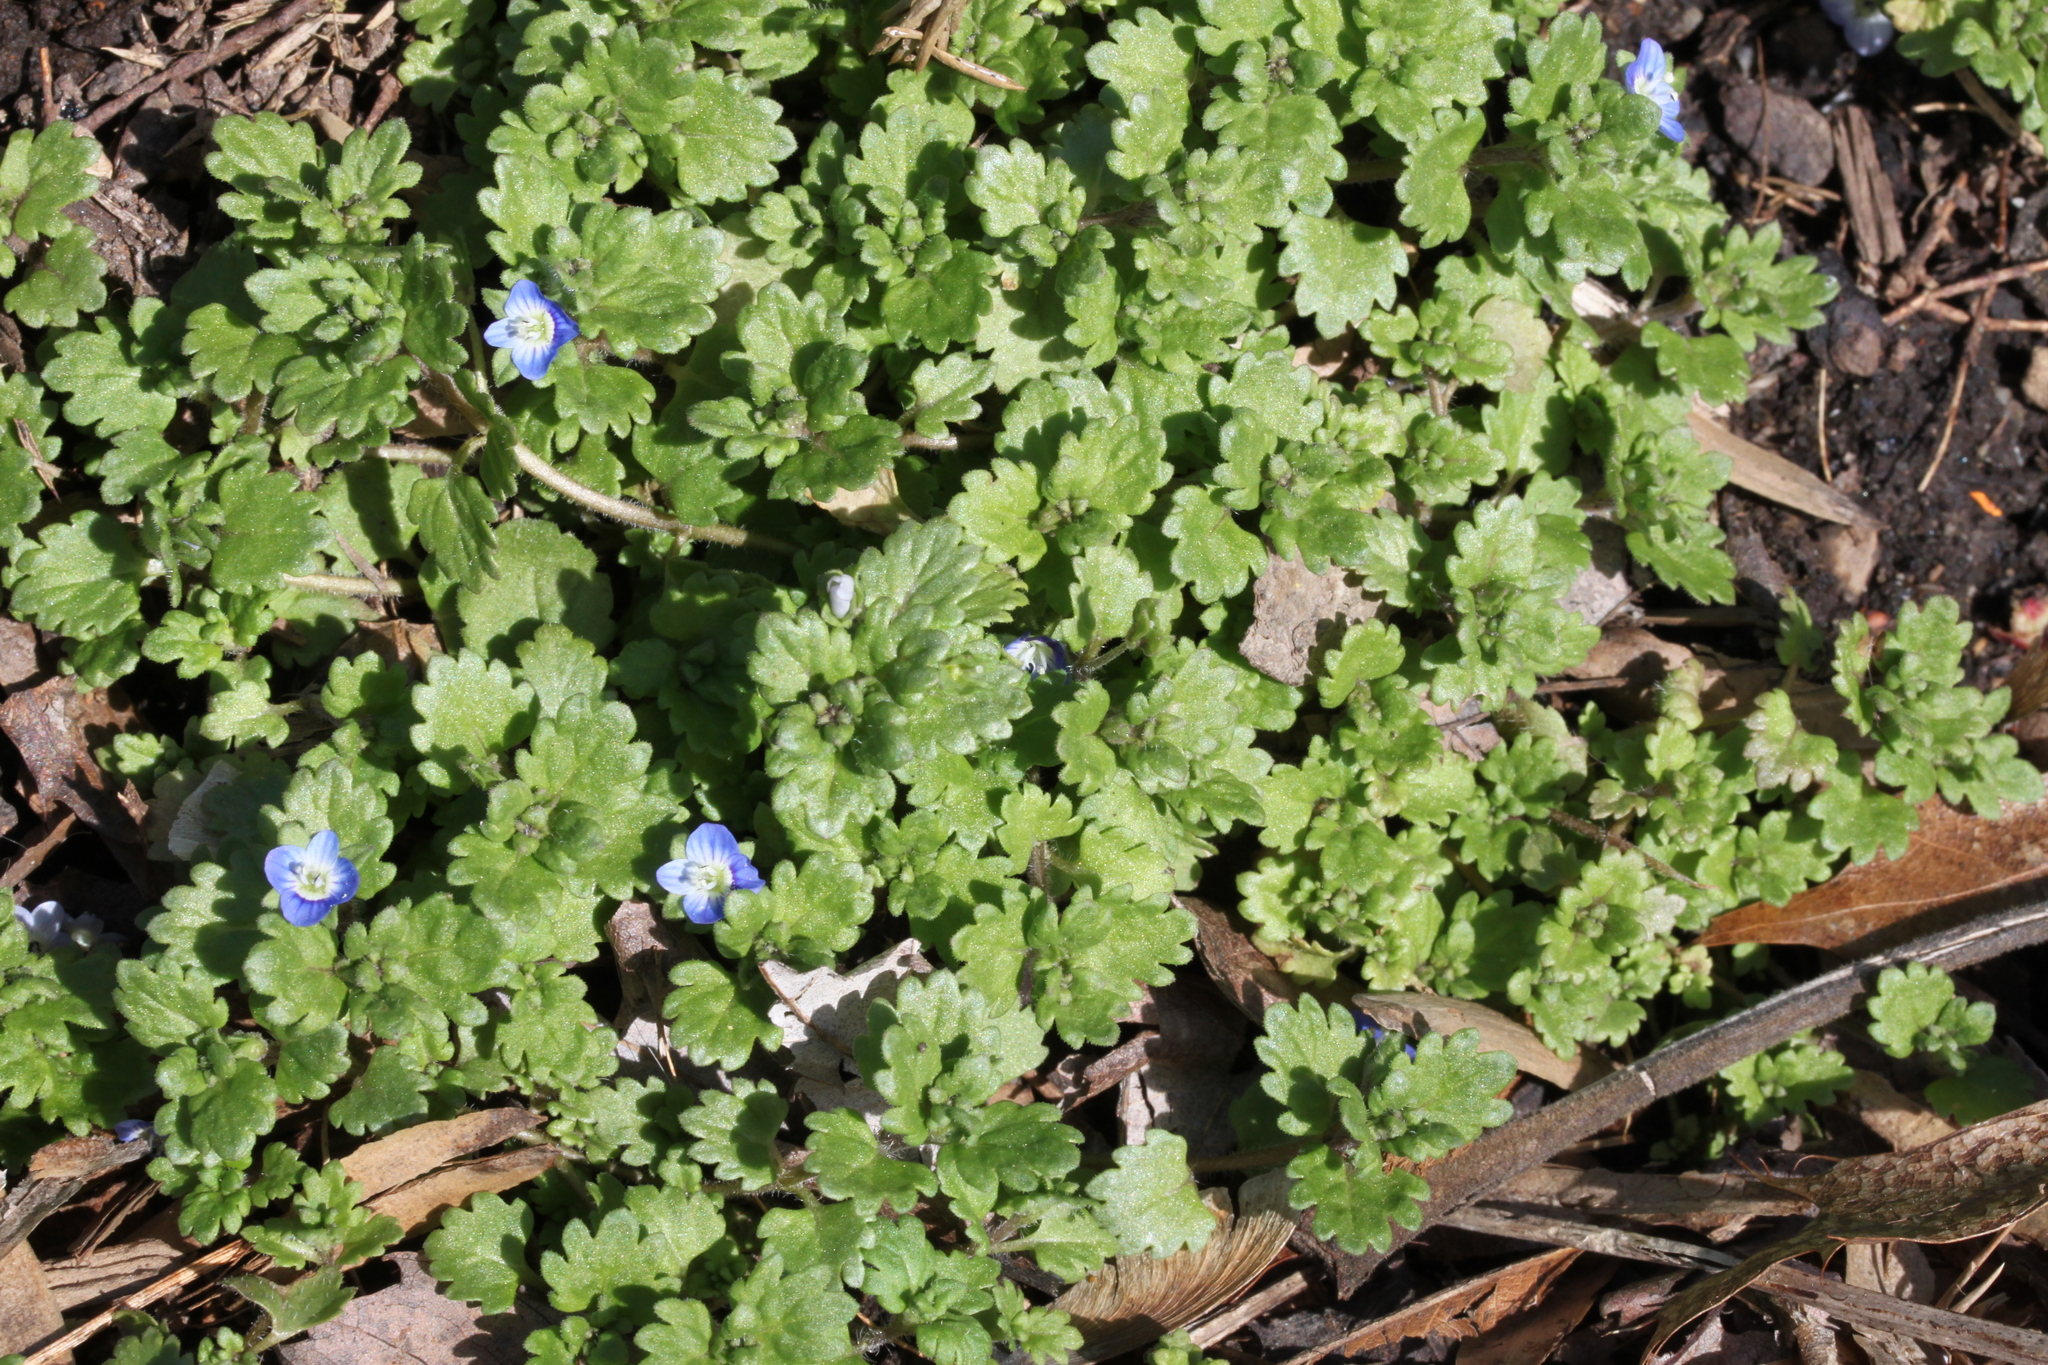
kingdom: Plantae
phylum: Tracheophyta
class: Magnoliopsida
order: Lamiales
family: Plantaginaceae
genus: Veronica
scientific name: Veronica polita
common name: Grey field-speedwell
